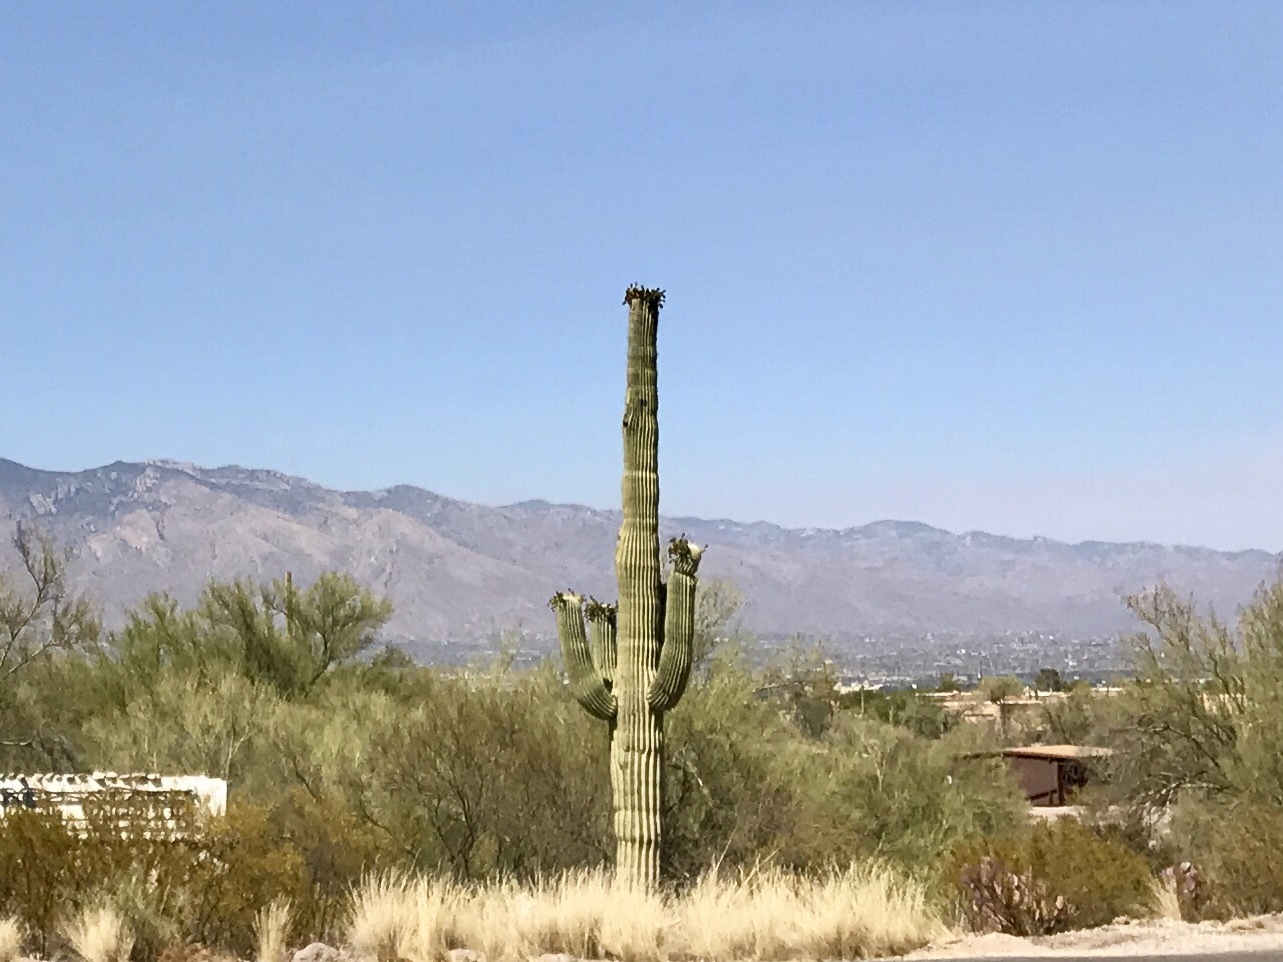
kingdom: Plantae
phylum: Tracheophyta
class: Magnoliopsida
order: Caryophyllales
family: Cactaceae
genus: Carnegiea
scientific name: Carnegiea gigantea
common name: Saguaro
